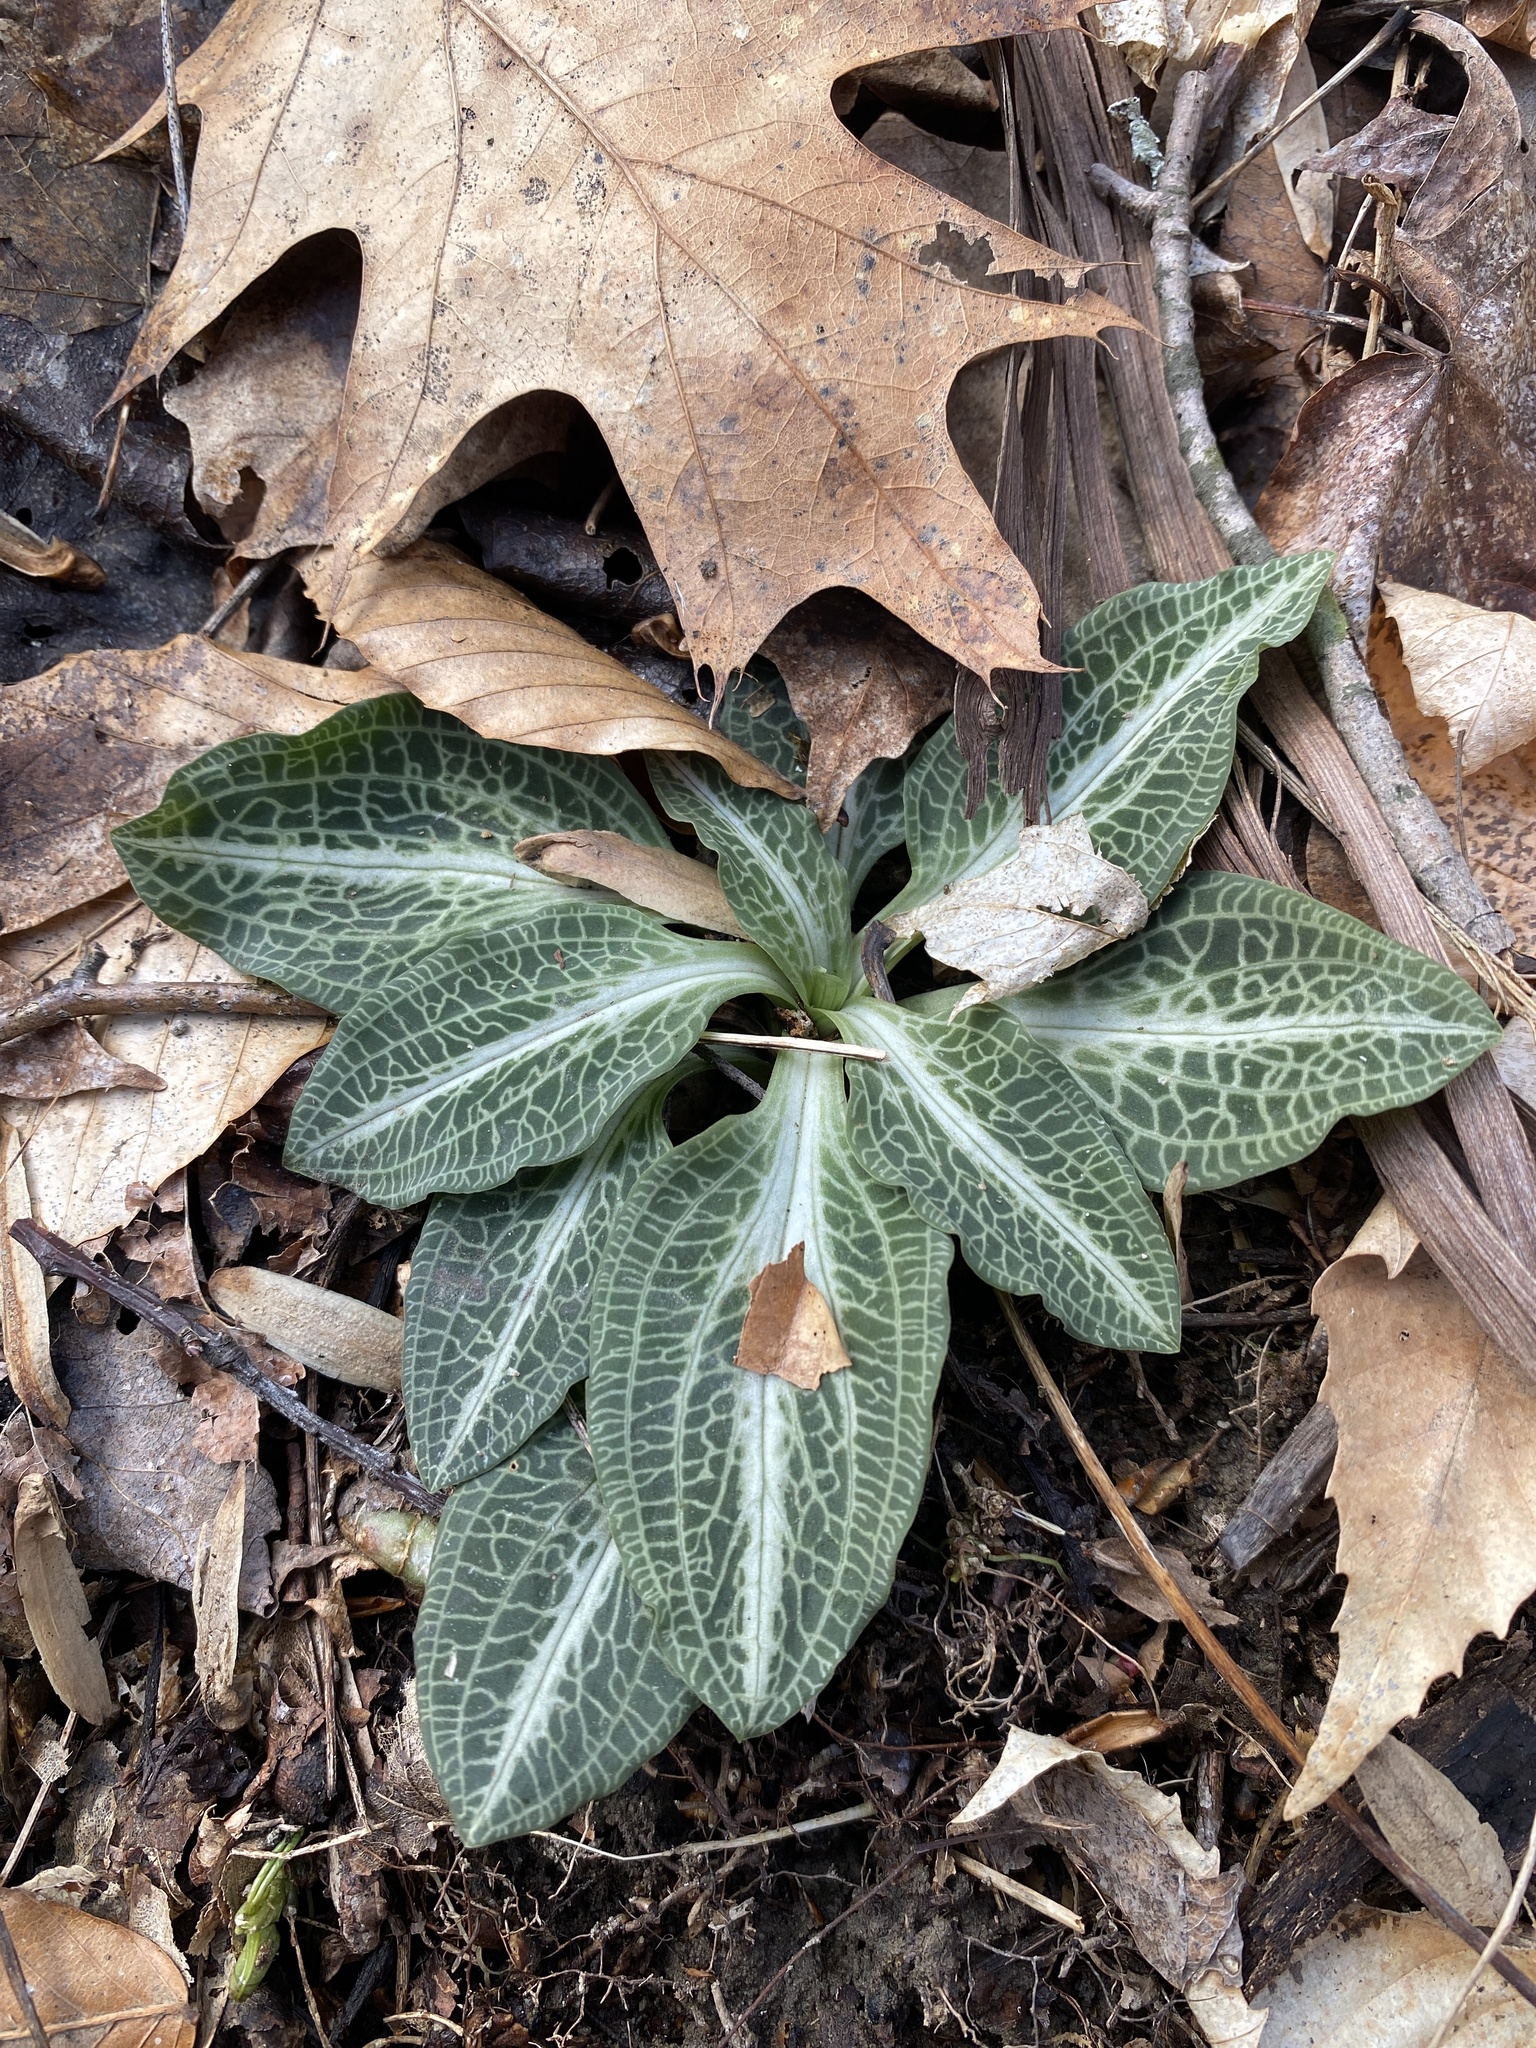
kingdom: Plantae
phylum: Tracheophyta
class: Liliopsida
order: Asparagales
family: Orchidaceae
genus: Goodyera
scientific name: Goodyera pubescens
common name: Downy rattlesnake-plantain
